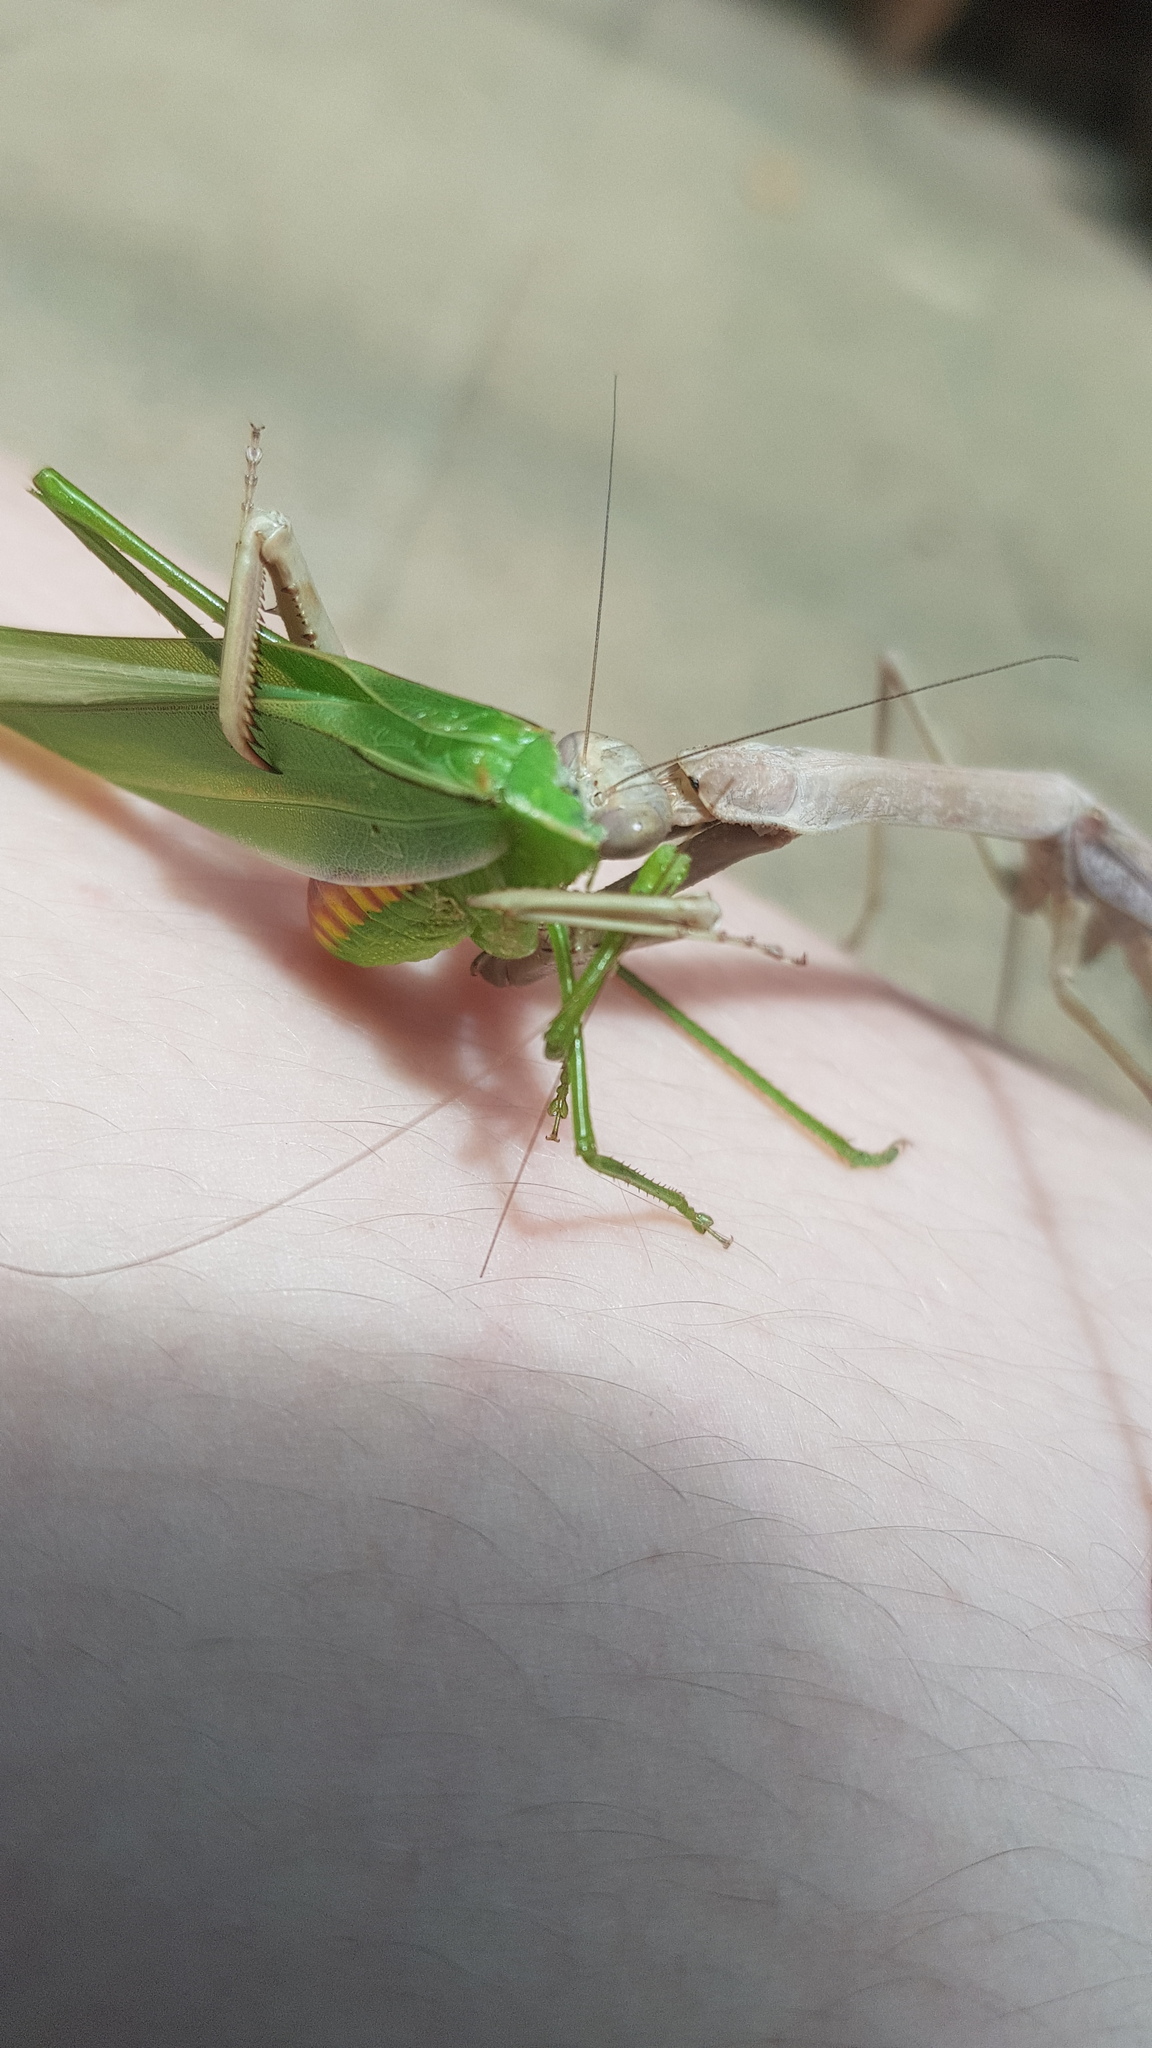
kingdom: Animalia
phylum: Arthropoda
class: Insecta
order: Mantodea
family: Mantidae
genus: Archimantis
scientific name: Archimantis latistyla
